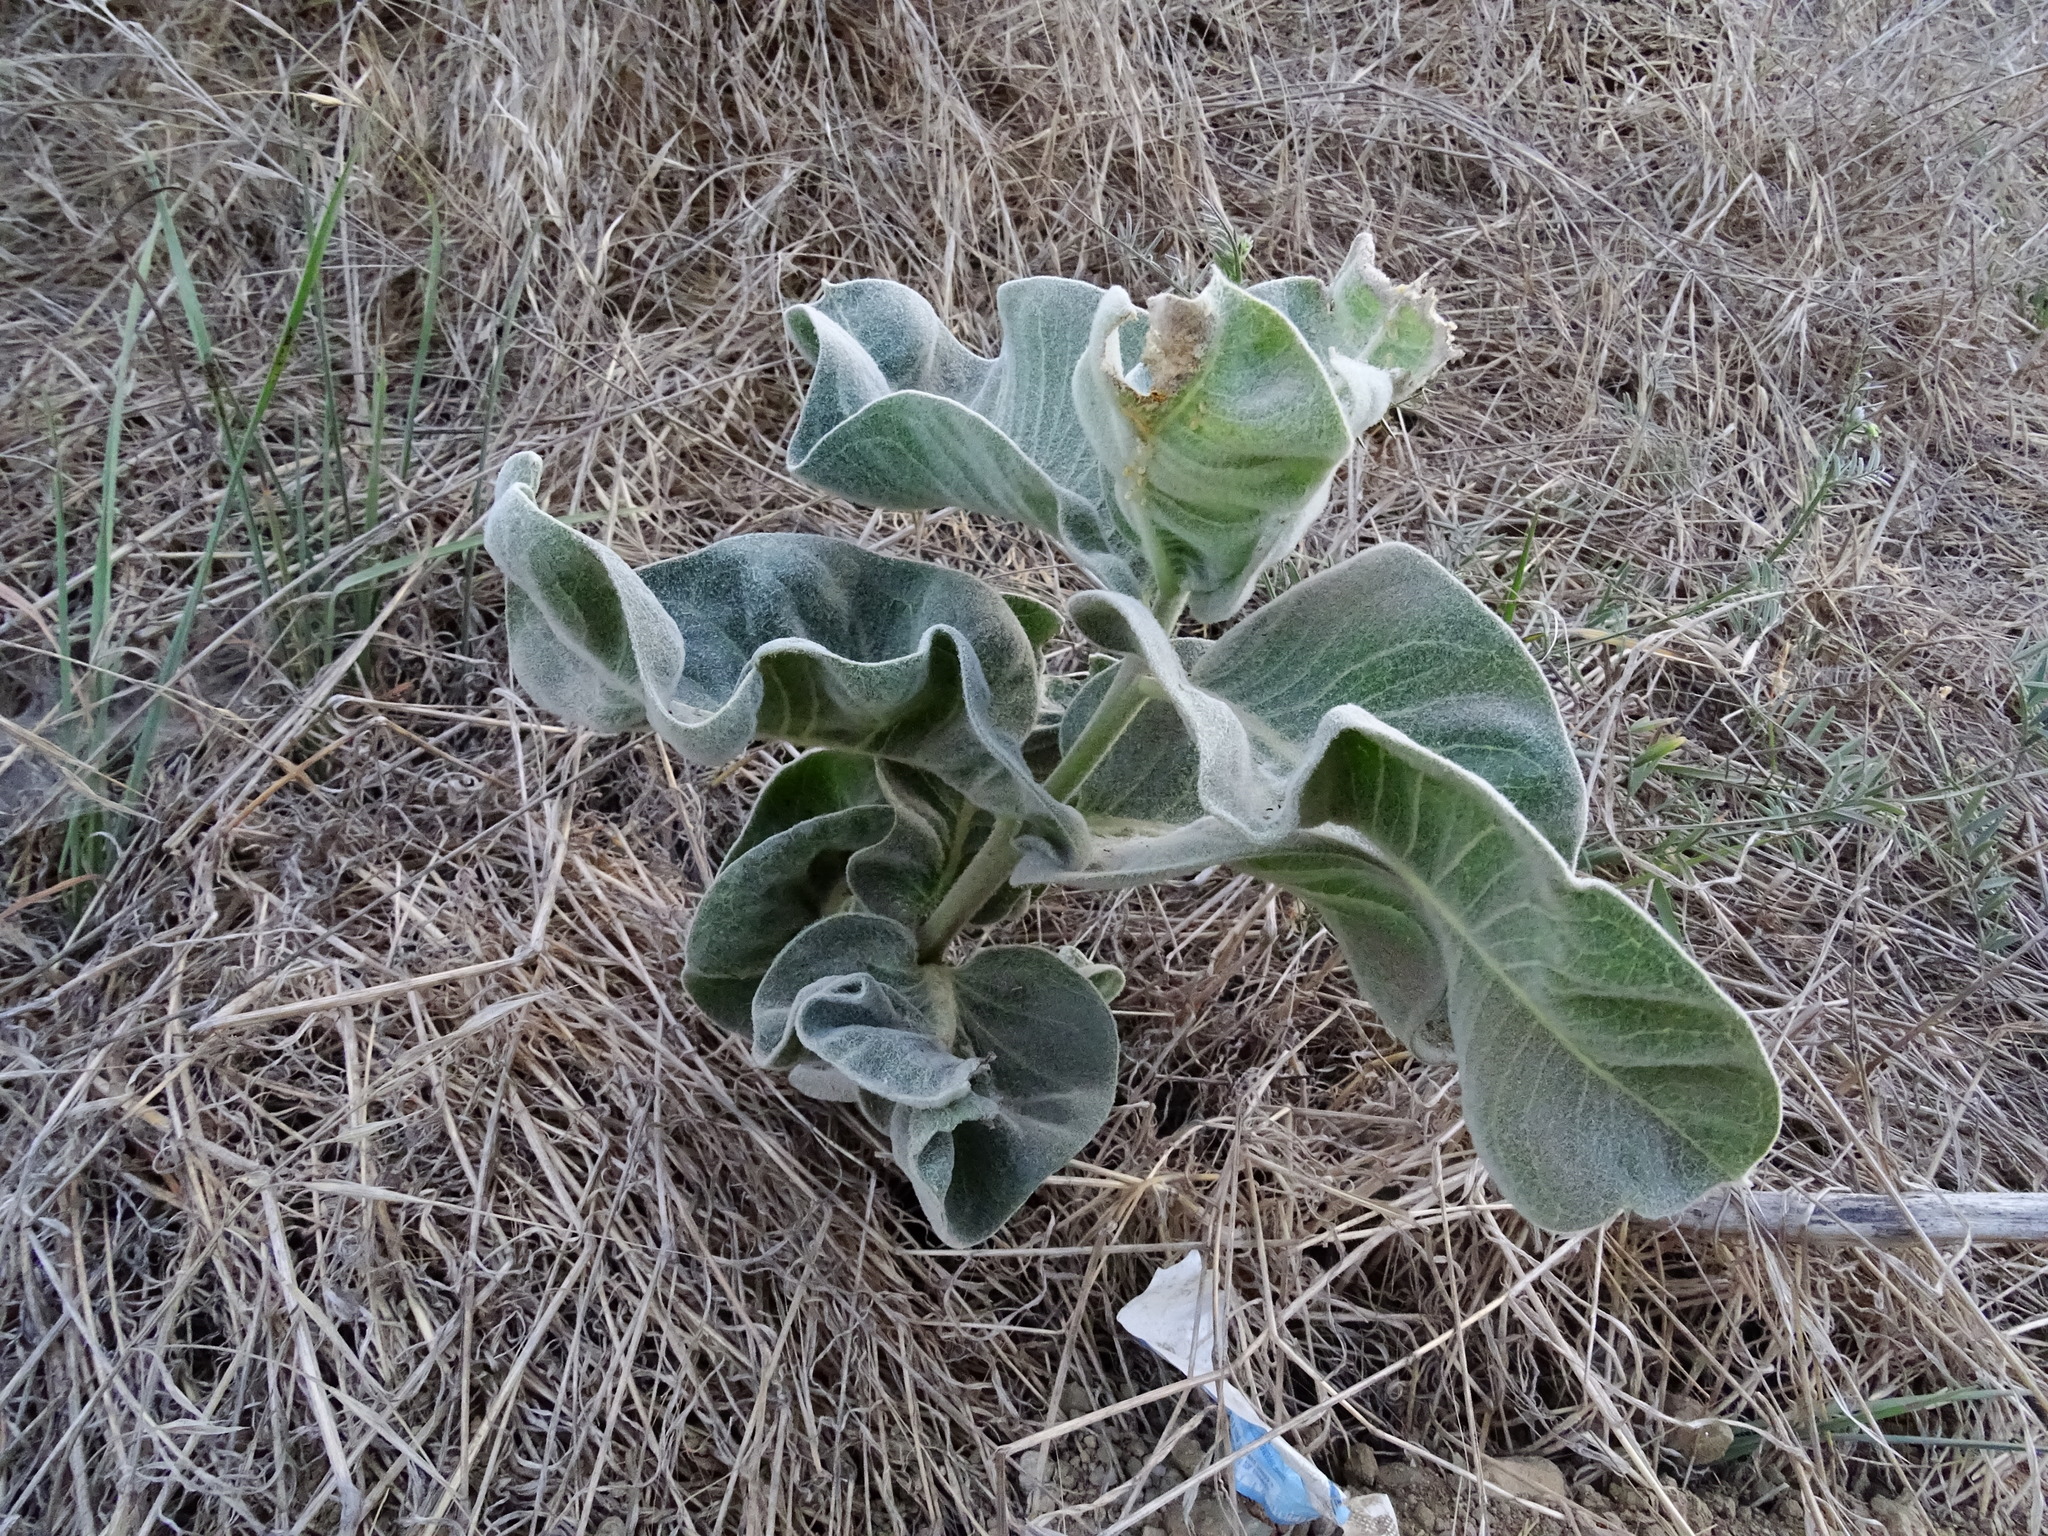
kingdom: Plantae
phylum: Tracheophyta
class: Magnoliopsida
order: Gentianales
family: Apocynaceae
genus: Asclepias
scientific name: Asclepias eriocarpa
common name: Indian milkweed
